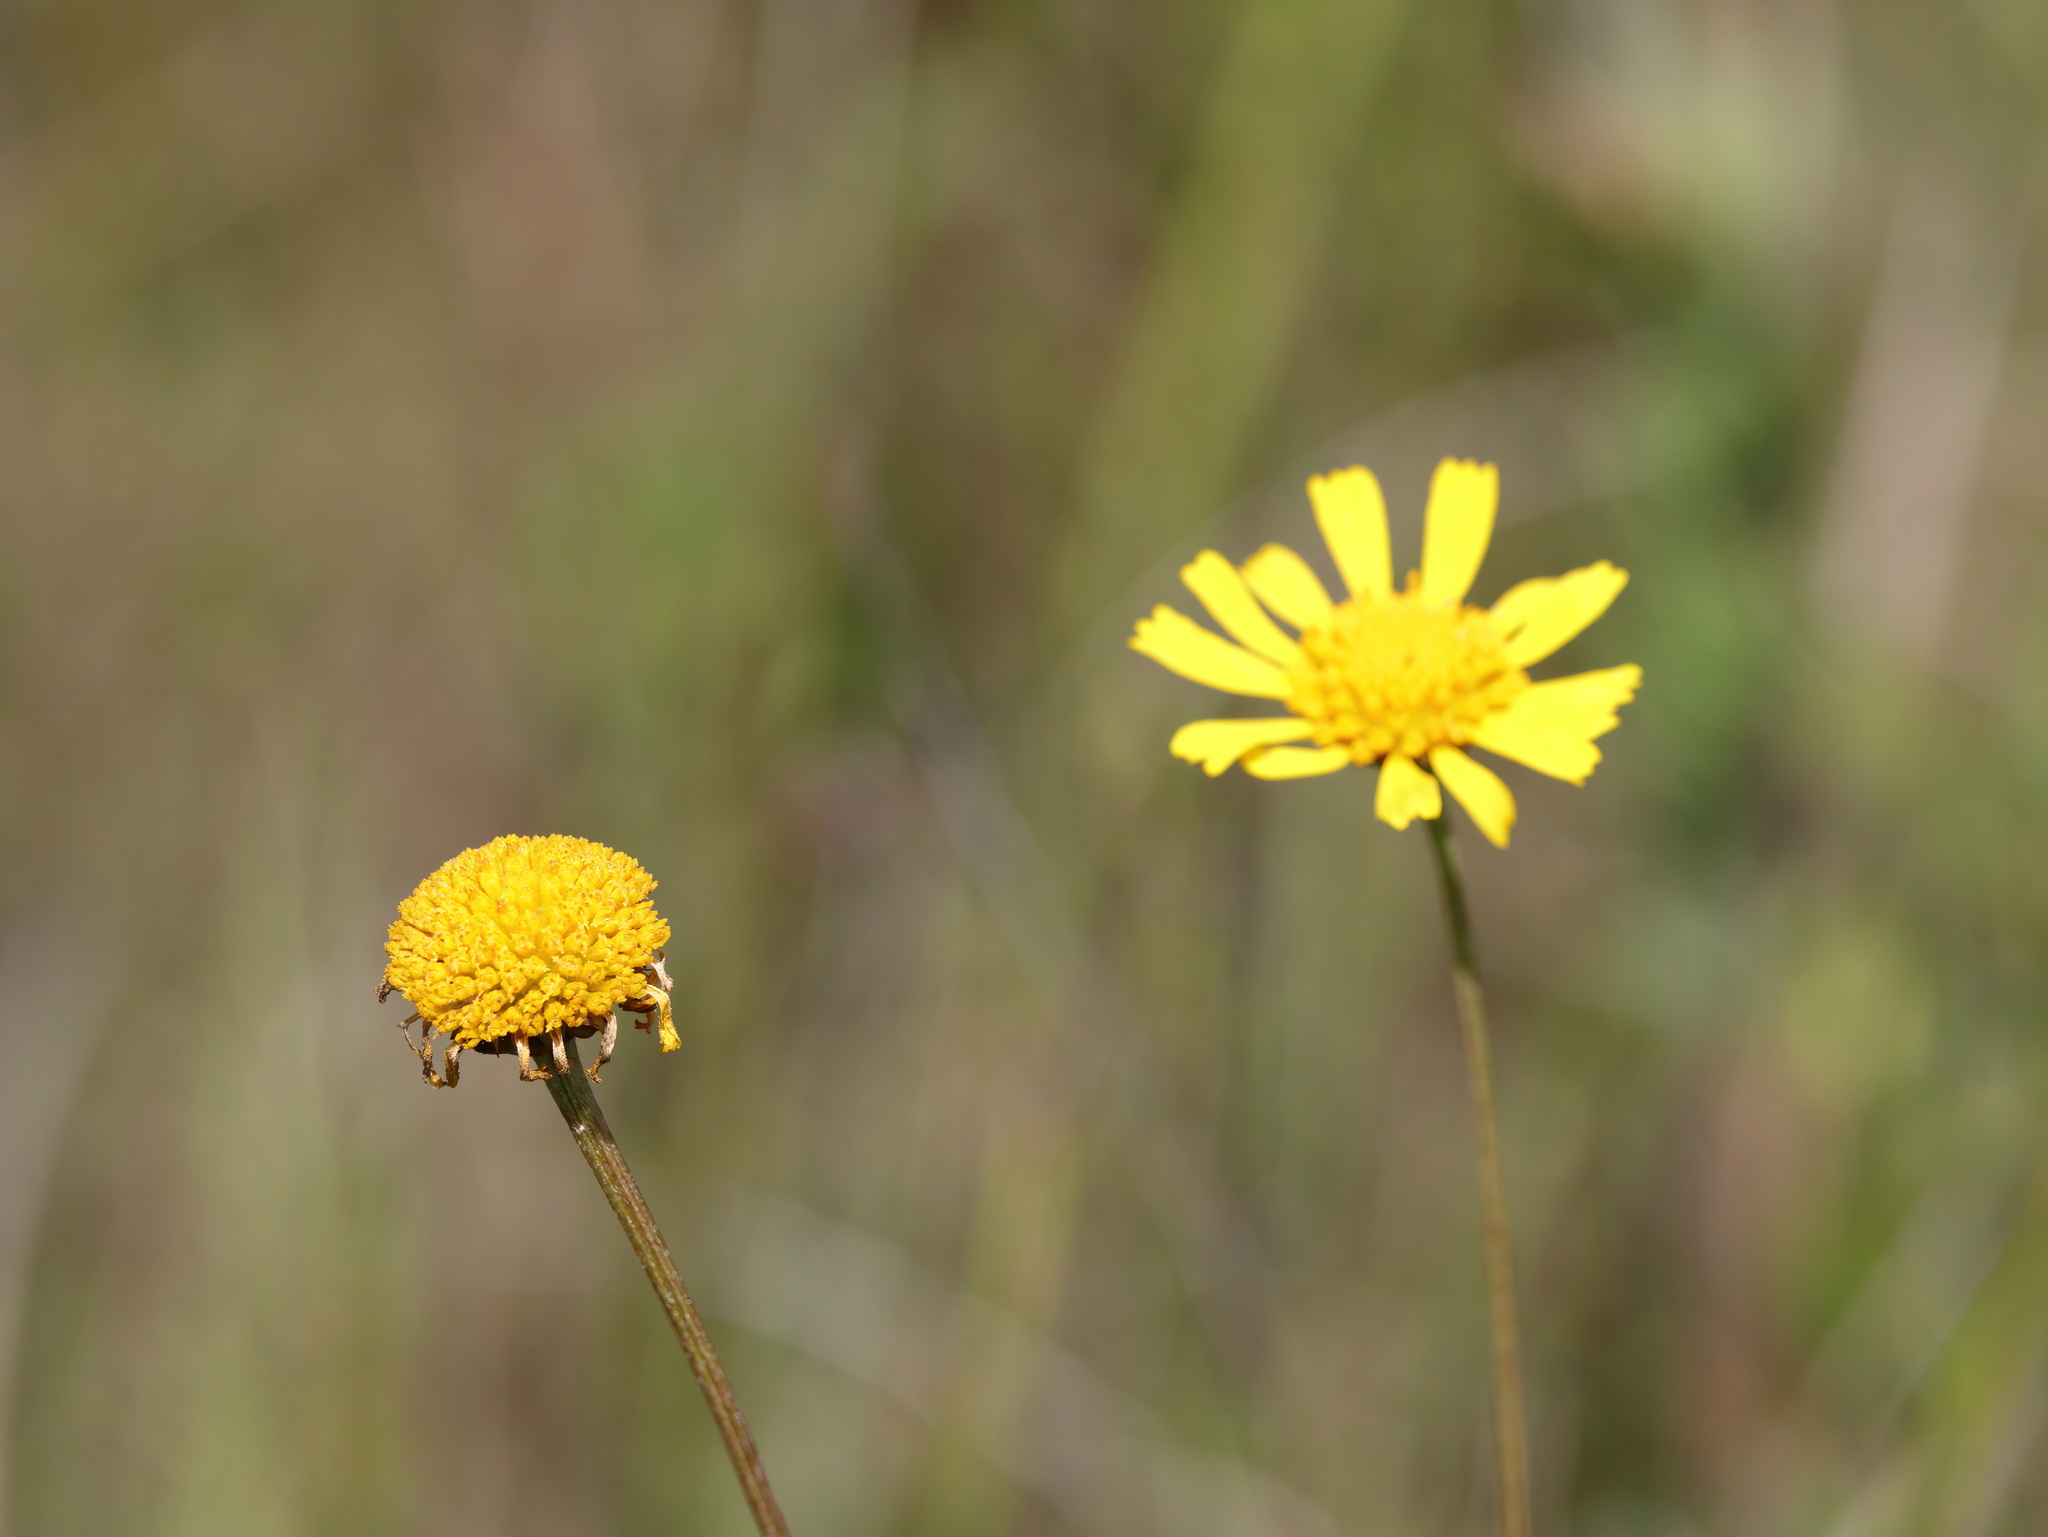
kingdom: Plantae
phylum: Tracheophyta
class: Magnoliopsida
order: Asterales
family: Asteraceae
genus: Balduina
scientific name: Balduina uniflora
